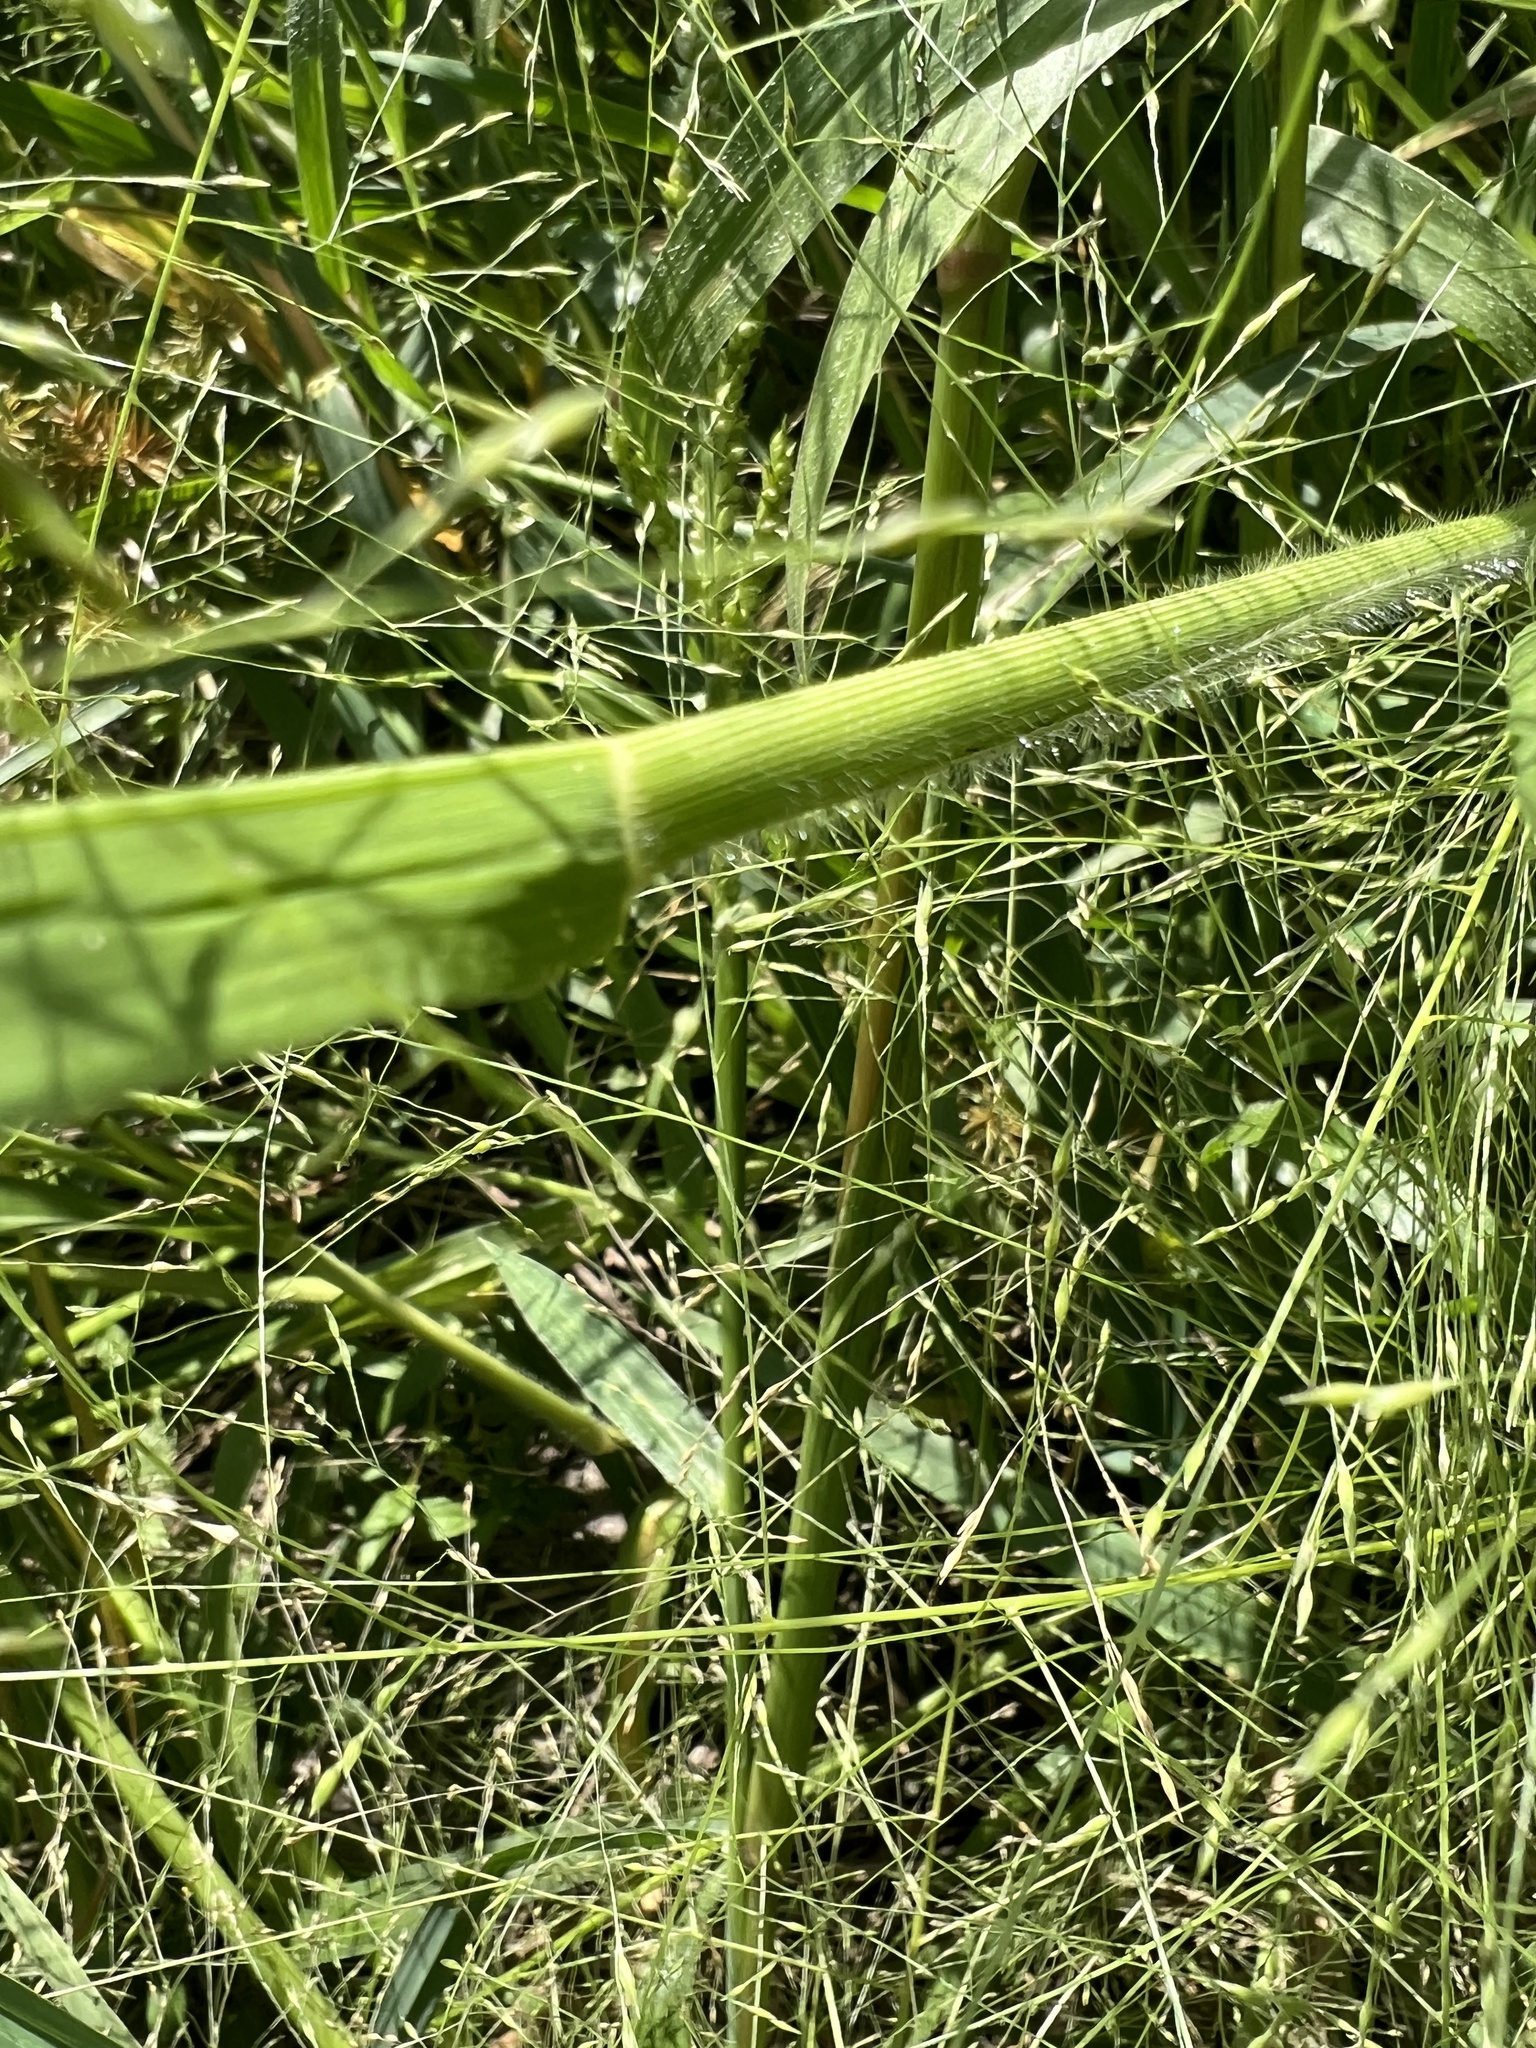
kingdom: Plantae
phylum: Tracheophyta
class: Liliopsida
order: Poales
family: Poaceae
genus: Panicum
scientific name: Panicum capillare
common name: Witch-grass
